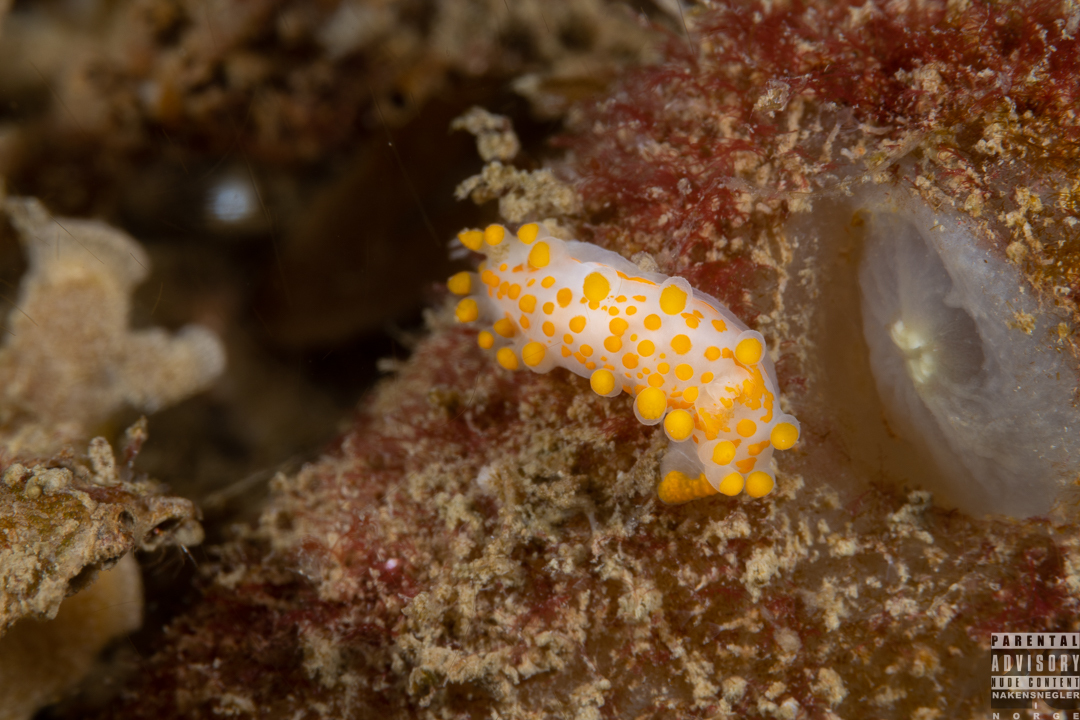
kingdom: Animalia
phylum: Mollusca
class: Gastropoda
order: Nudibranchia
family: Polyceridae
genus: Limacia
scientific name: Limacia clavigera
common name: Orange-clubbed sea slug
